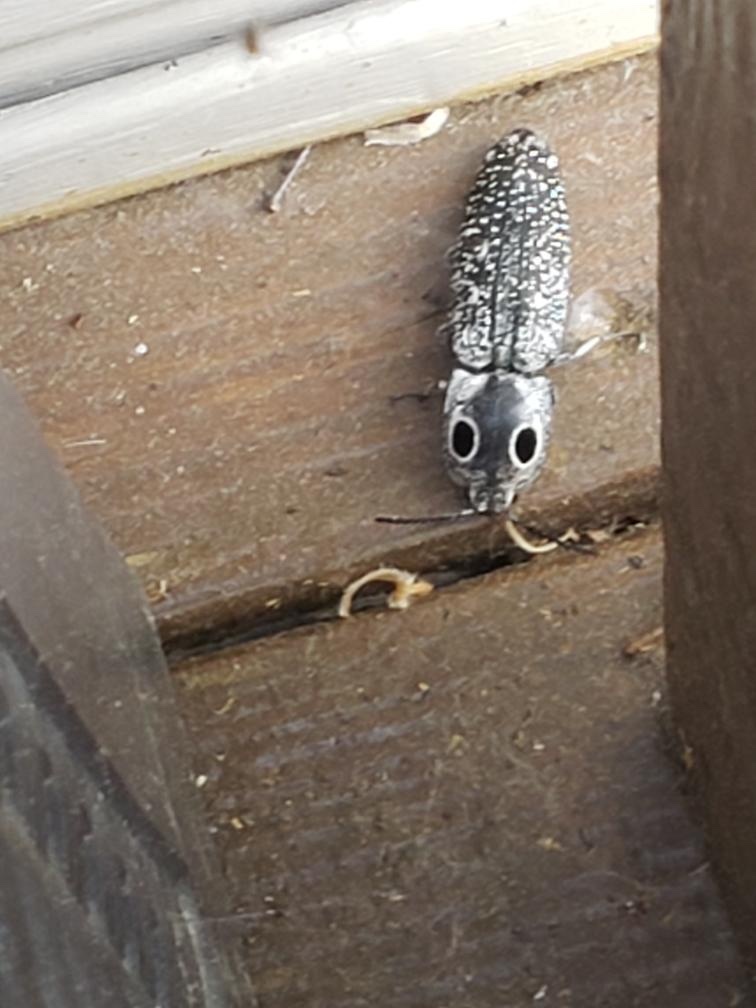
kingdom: Animalia
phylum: Arthropoda
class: Insecta
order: Coleoptera
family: Elateridae
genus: Alaus
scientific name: Alaus oculatus
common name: Eastern eyed click beetle
